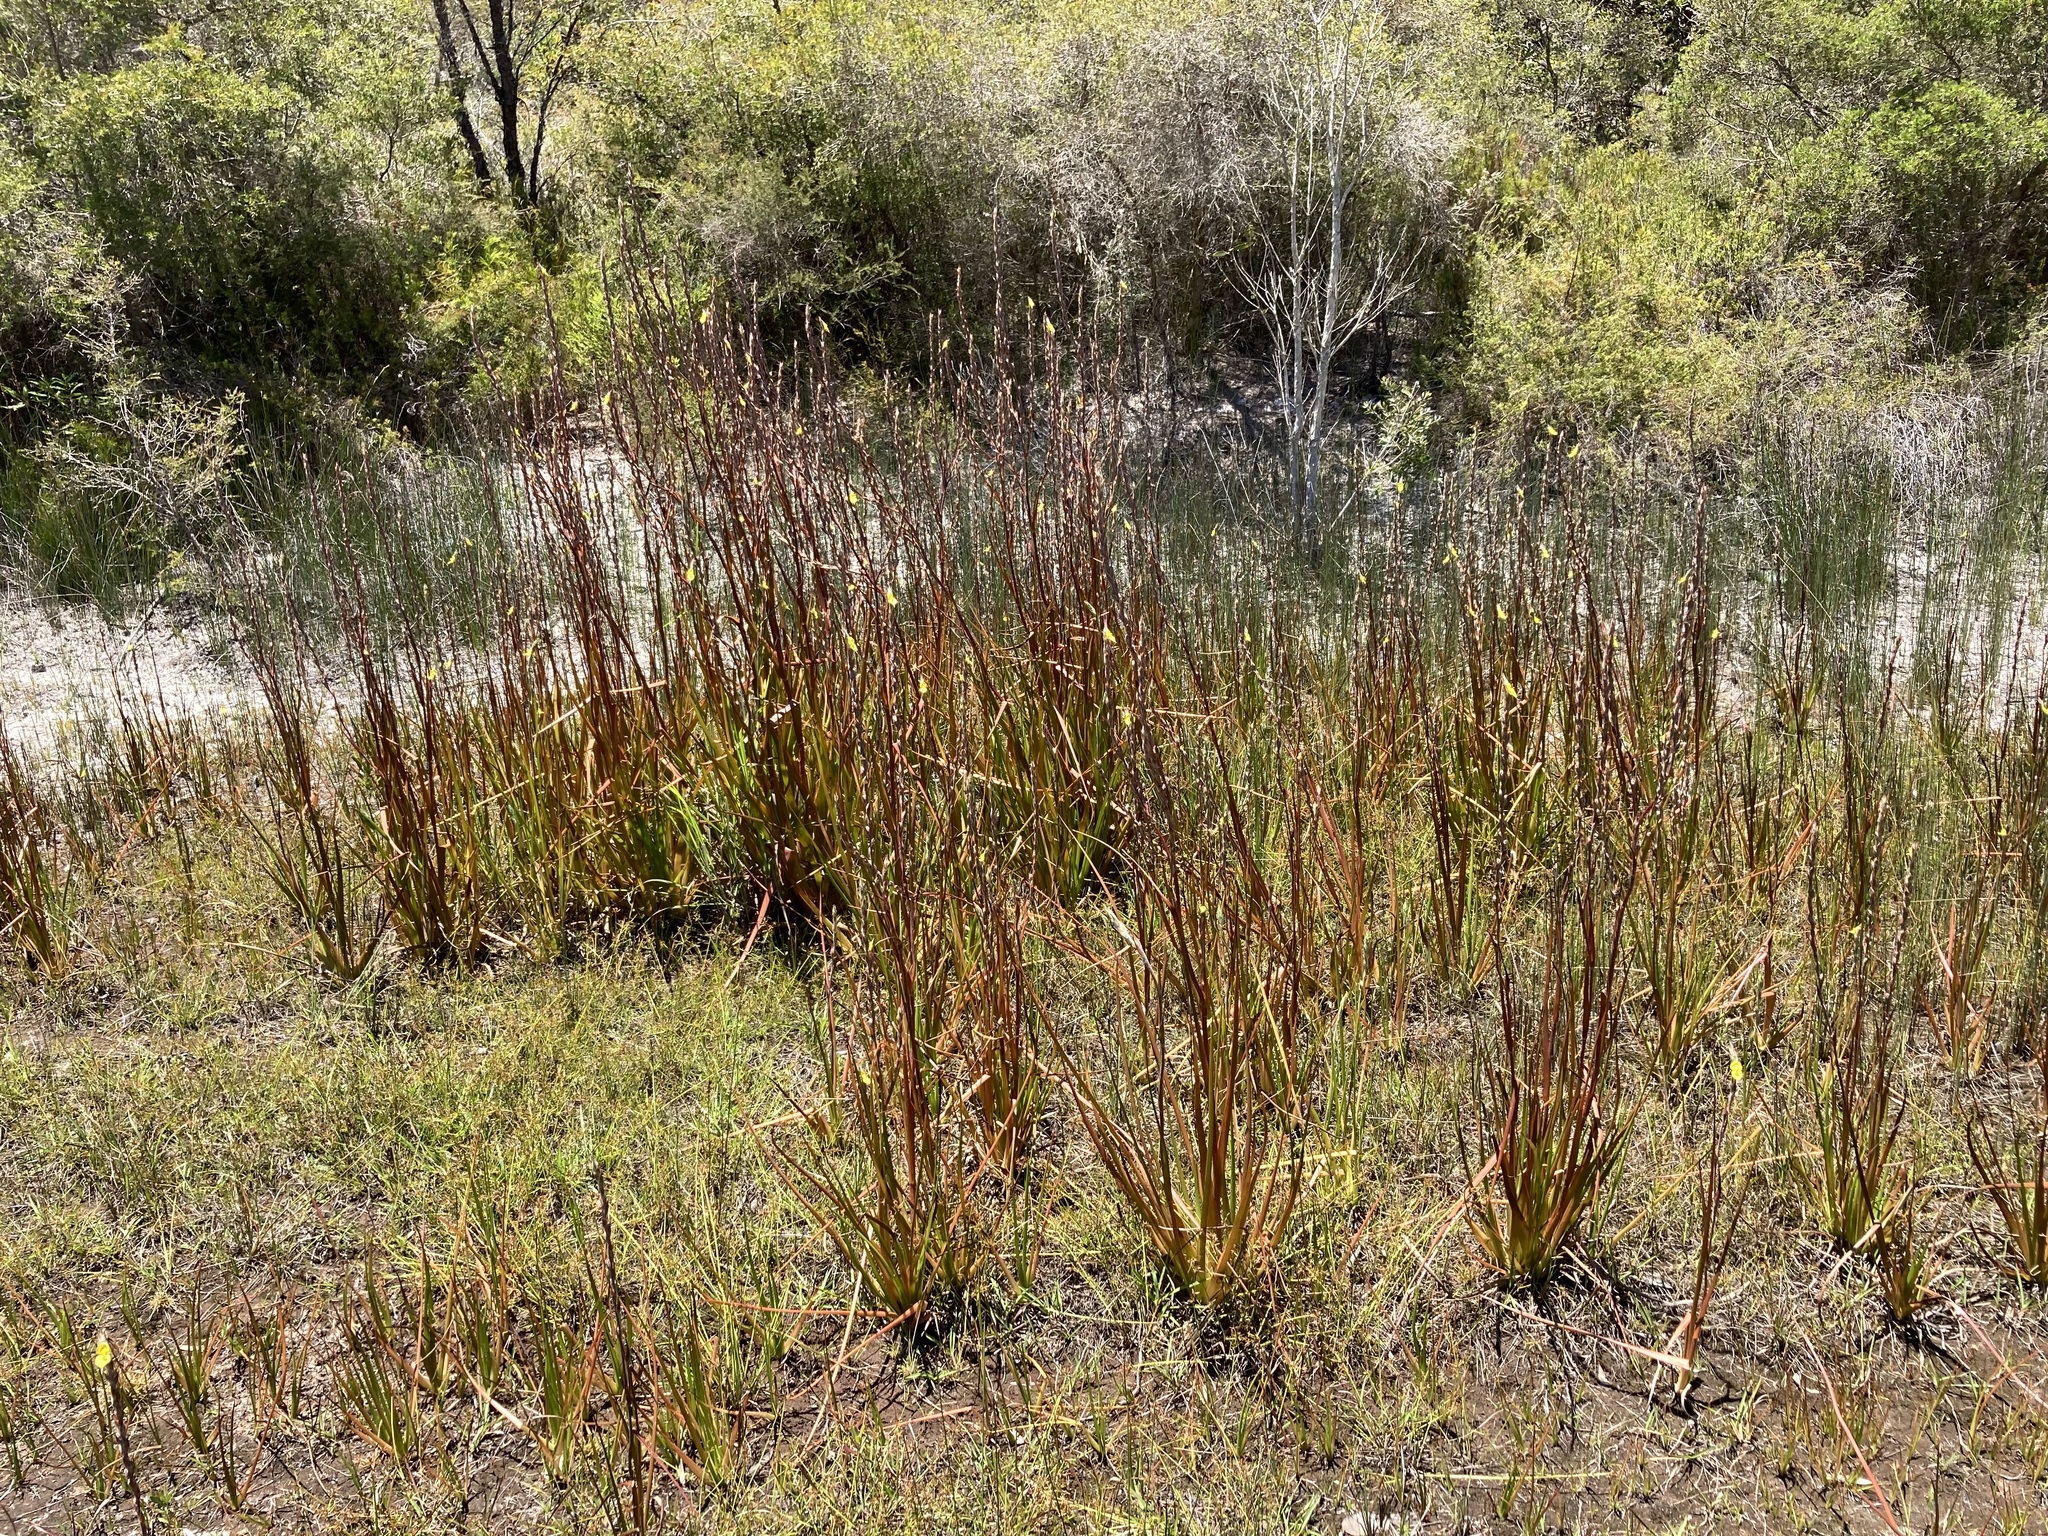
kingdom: Plantae
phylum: Tracheophyta
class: Liliopsida
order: Commelinales
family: Philydraceae
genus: Philydrum
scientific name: Philydrum lanuginosum
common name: Woolly frog's mouth
